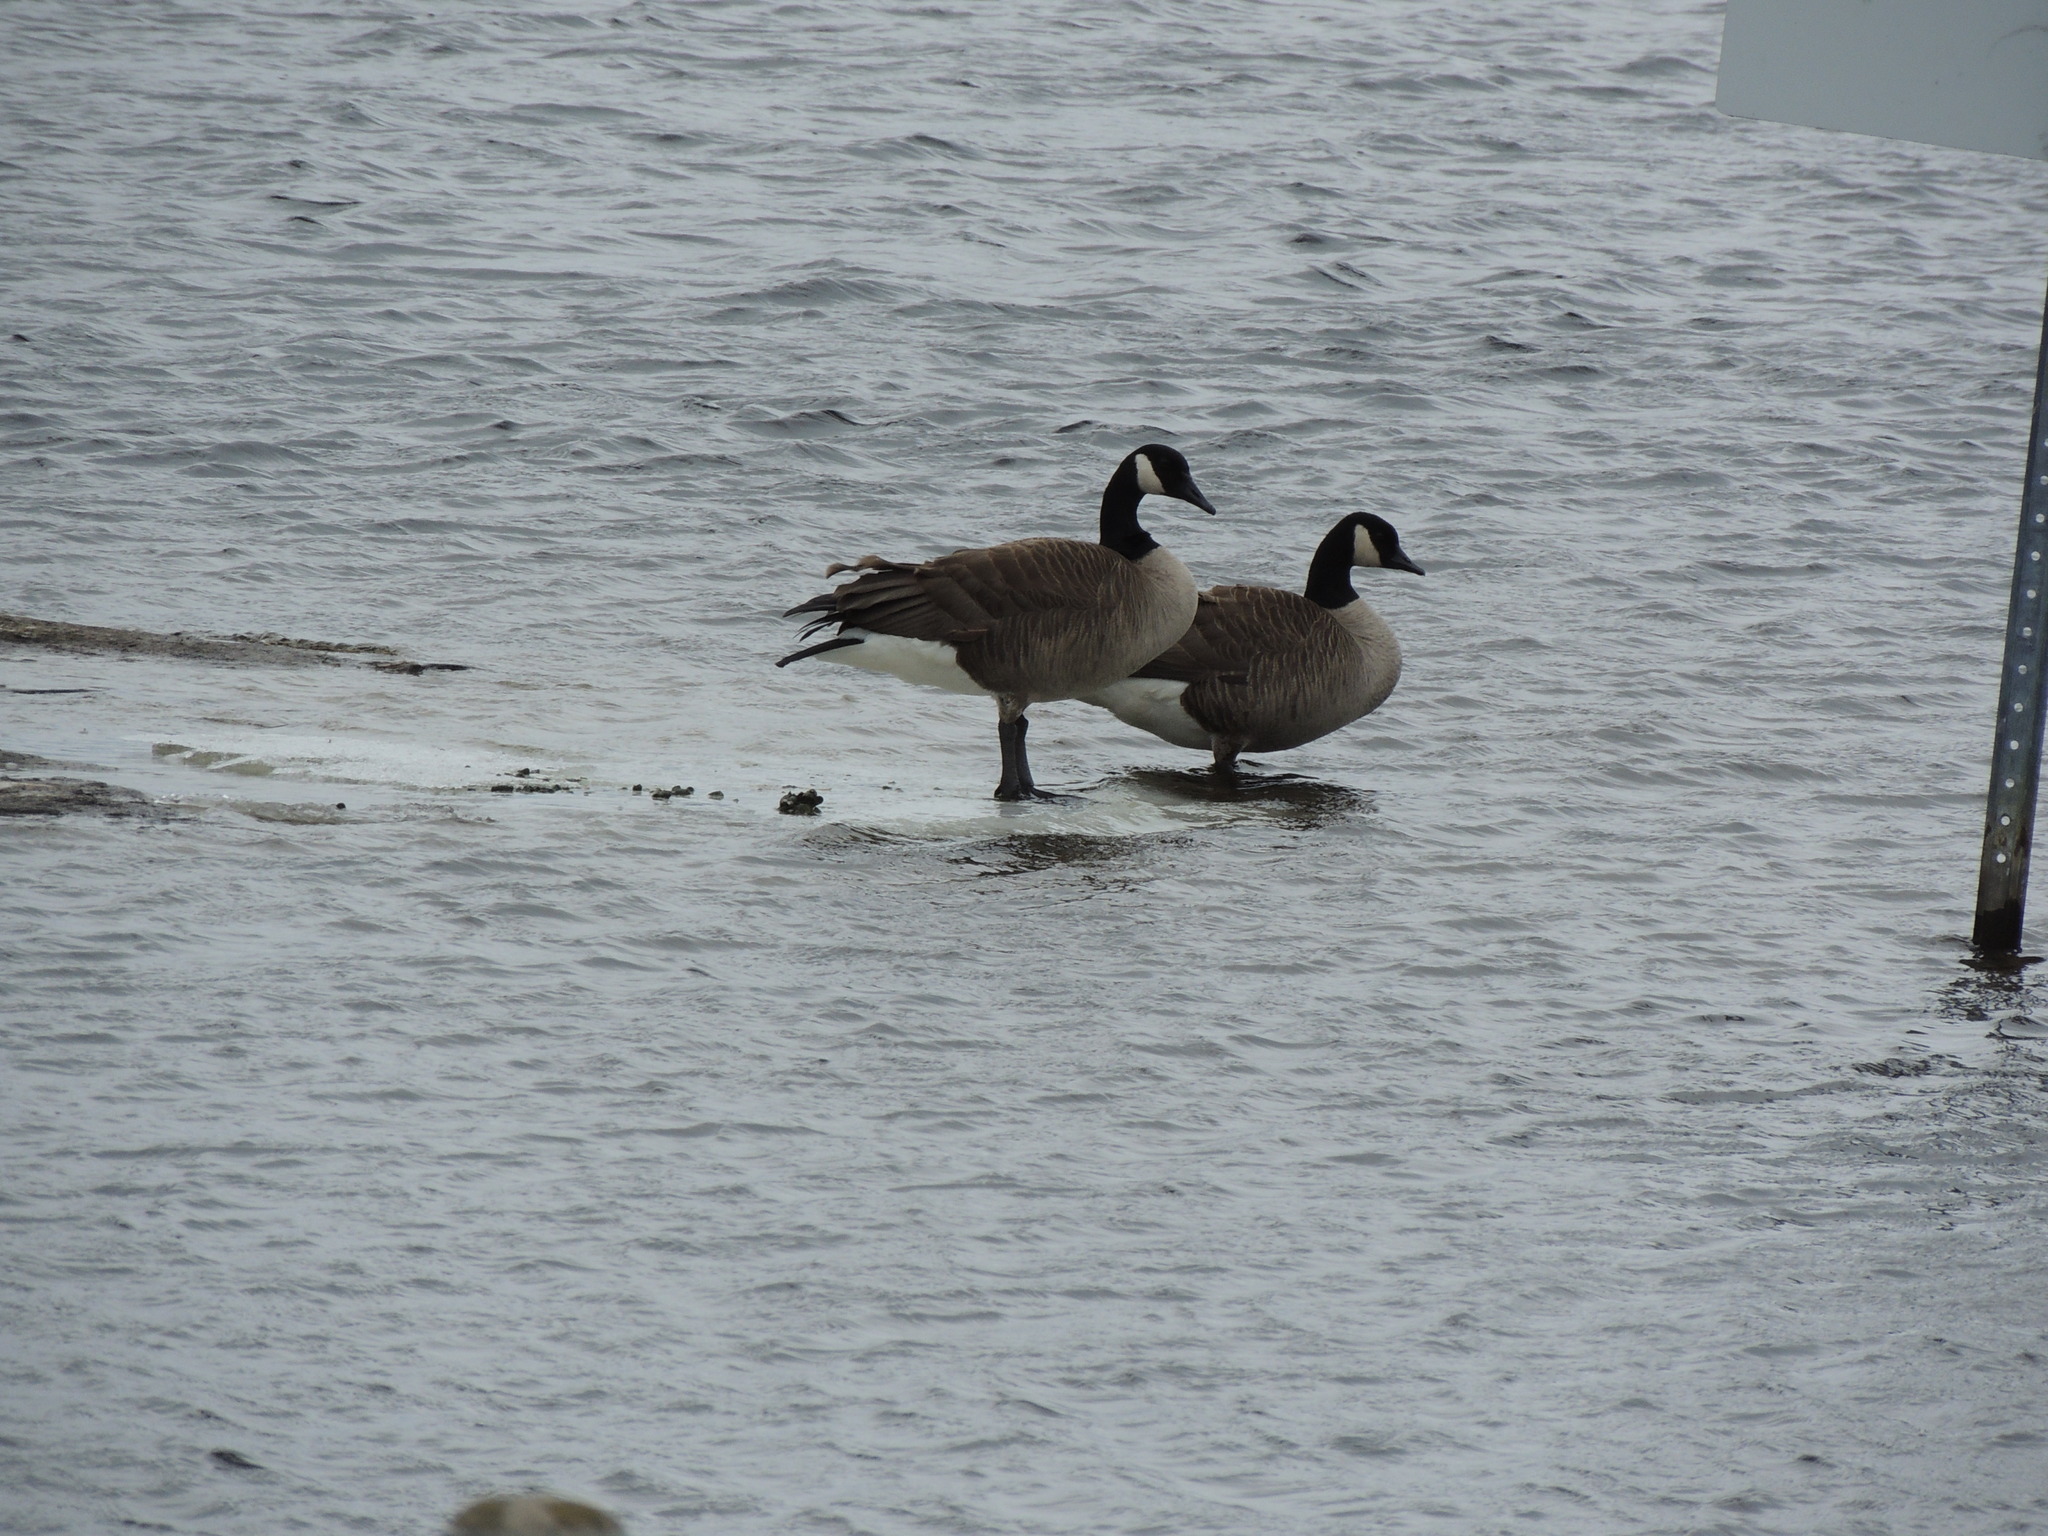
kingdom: Animalia
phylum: Chordata
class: Aves
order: Anseriformes
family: Anatidae
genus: Branta
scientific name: Branta canadensis
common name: Canada goose
